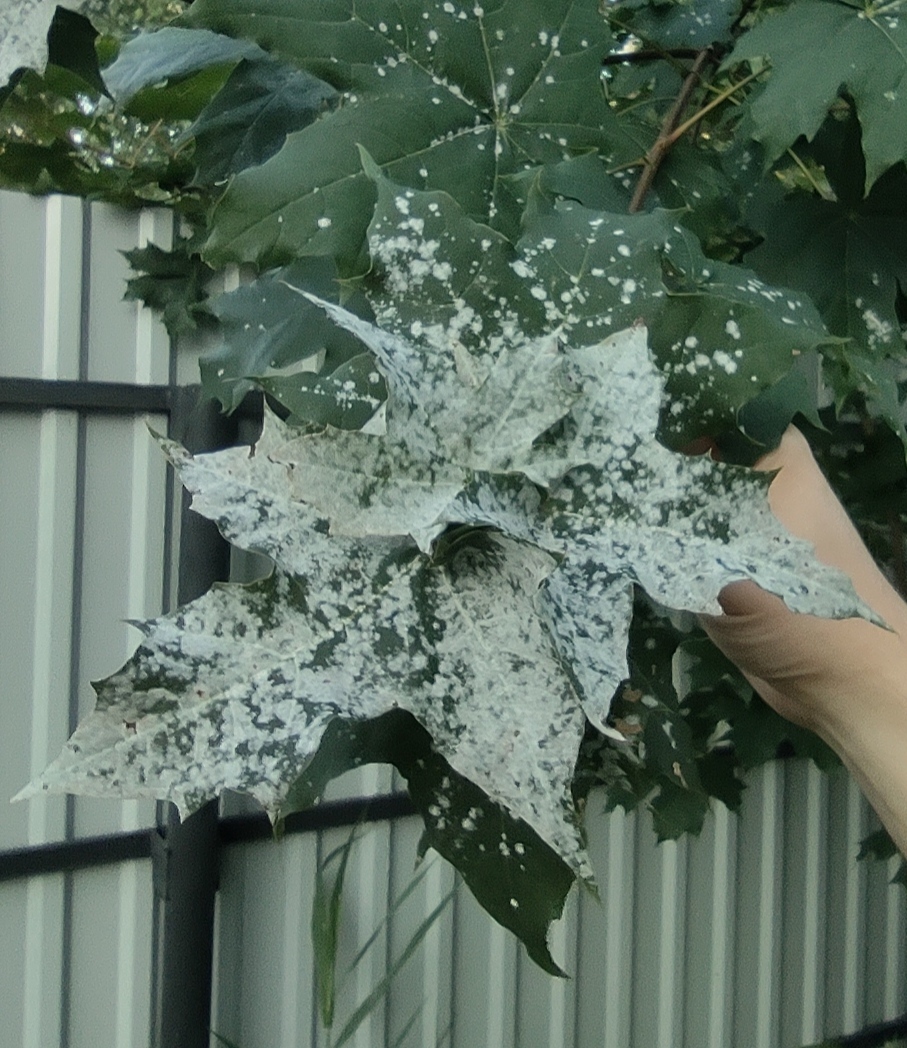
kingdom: Fungi
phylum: Ascomycota
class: Leotiomycetes
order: Helotiales
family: Erysiphaceae
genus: Sawadaea
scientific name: Sawadaea tulasnei
